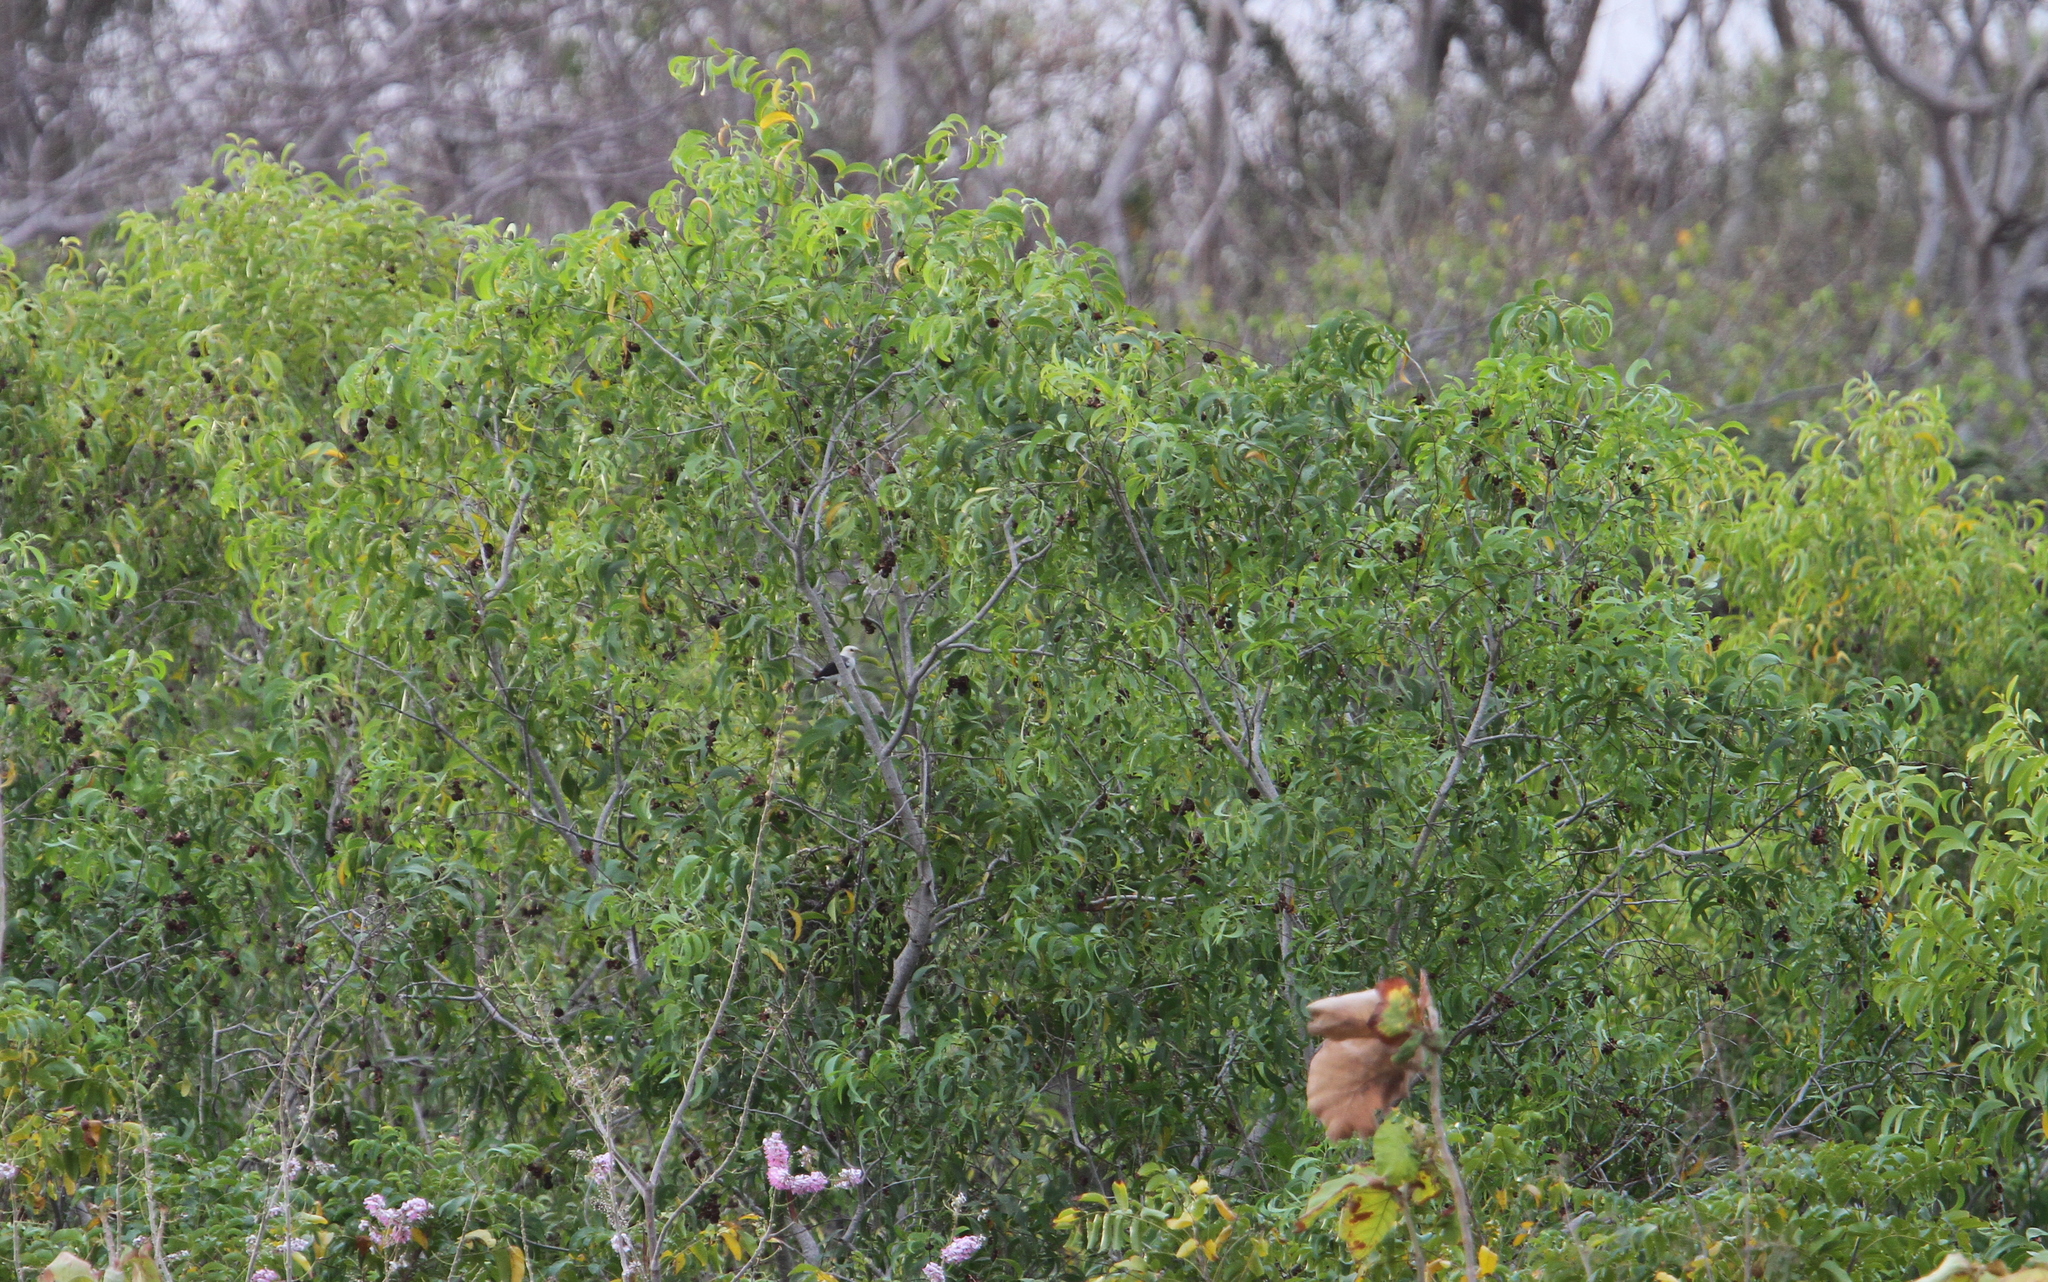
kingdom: Animalia
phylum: Chordata
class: Aves
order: Passeriformes
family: Sturnidae
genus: Acridotheres
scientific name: Acridotheres melanopterus
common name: Black-winged starling
